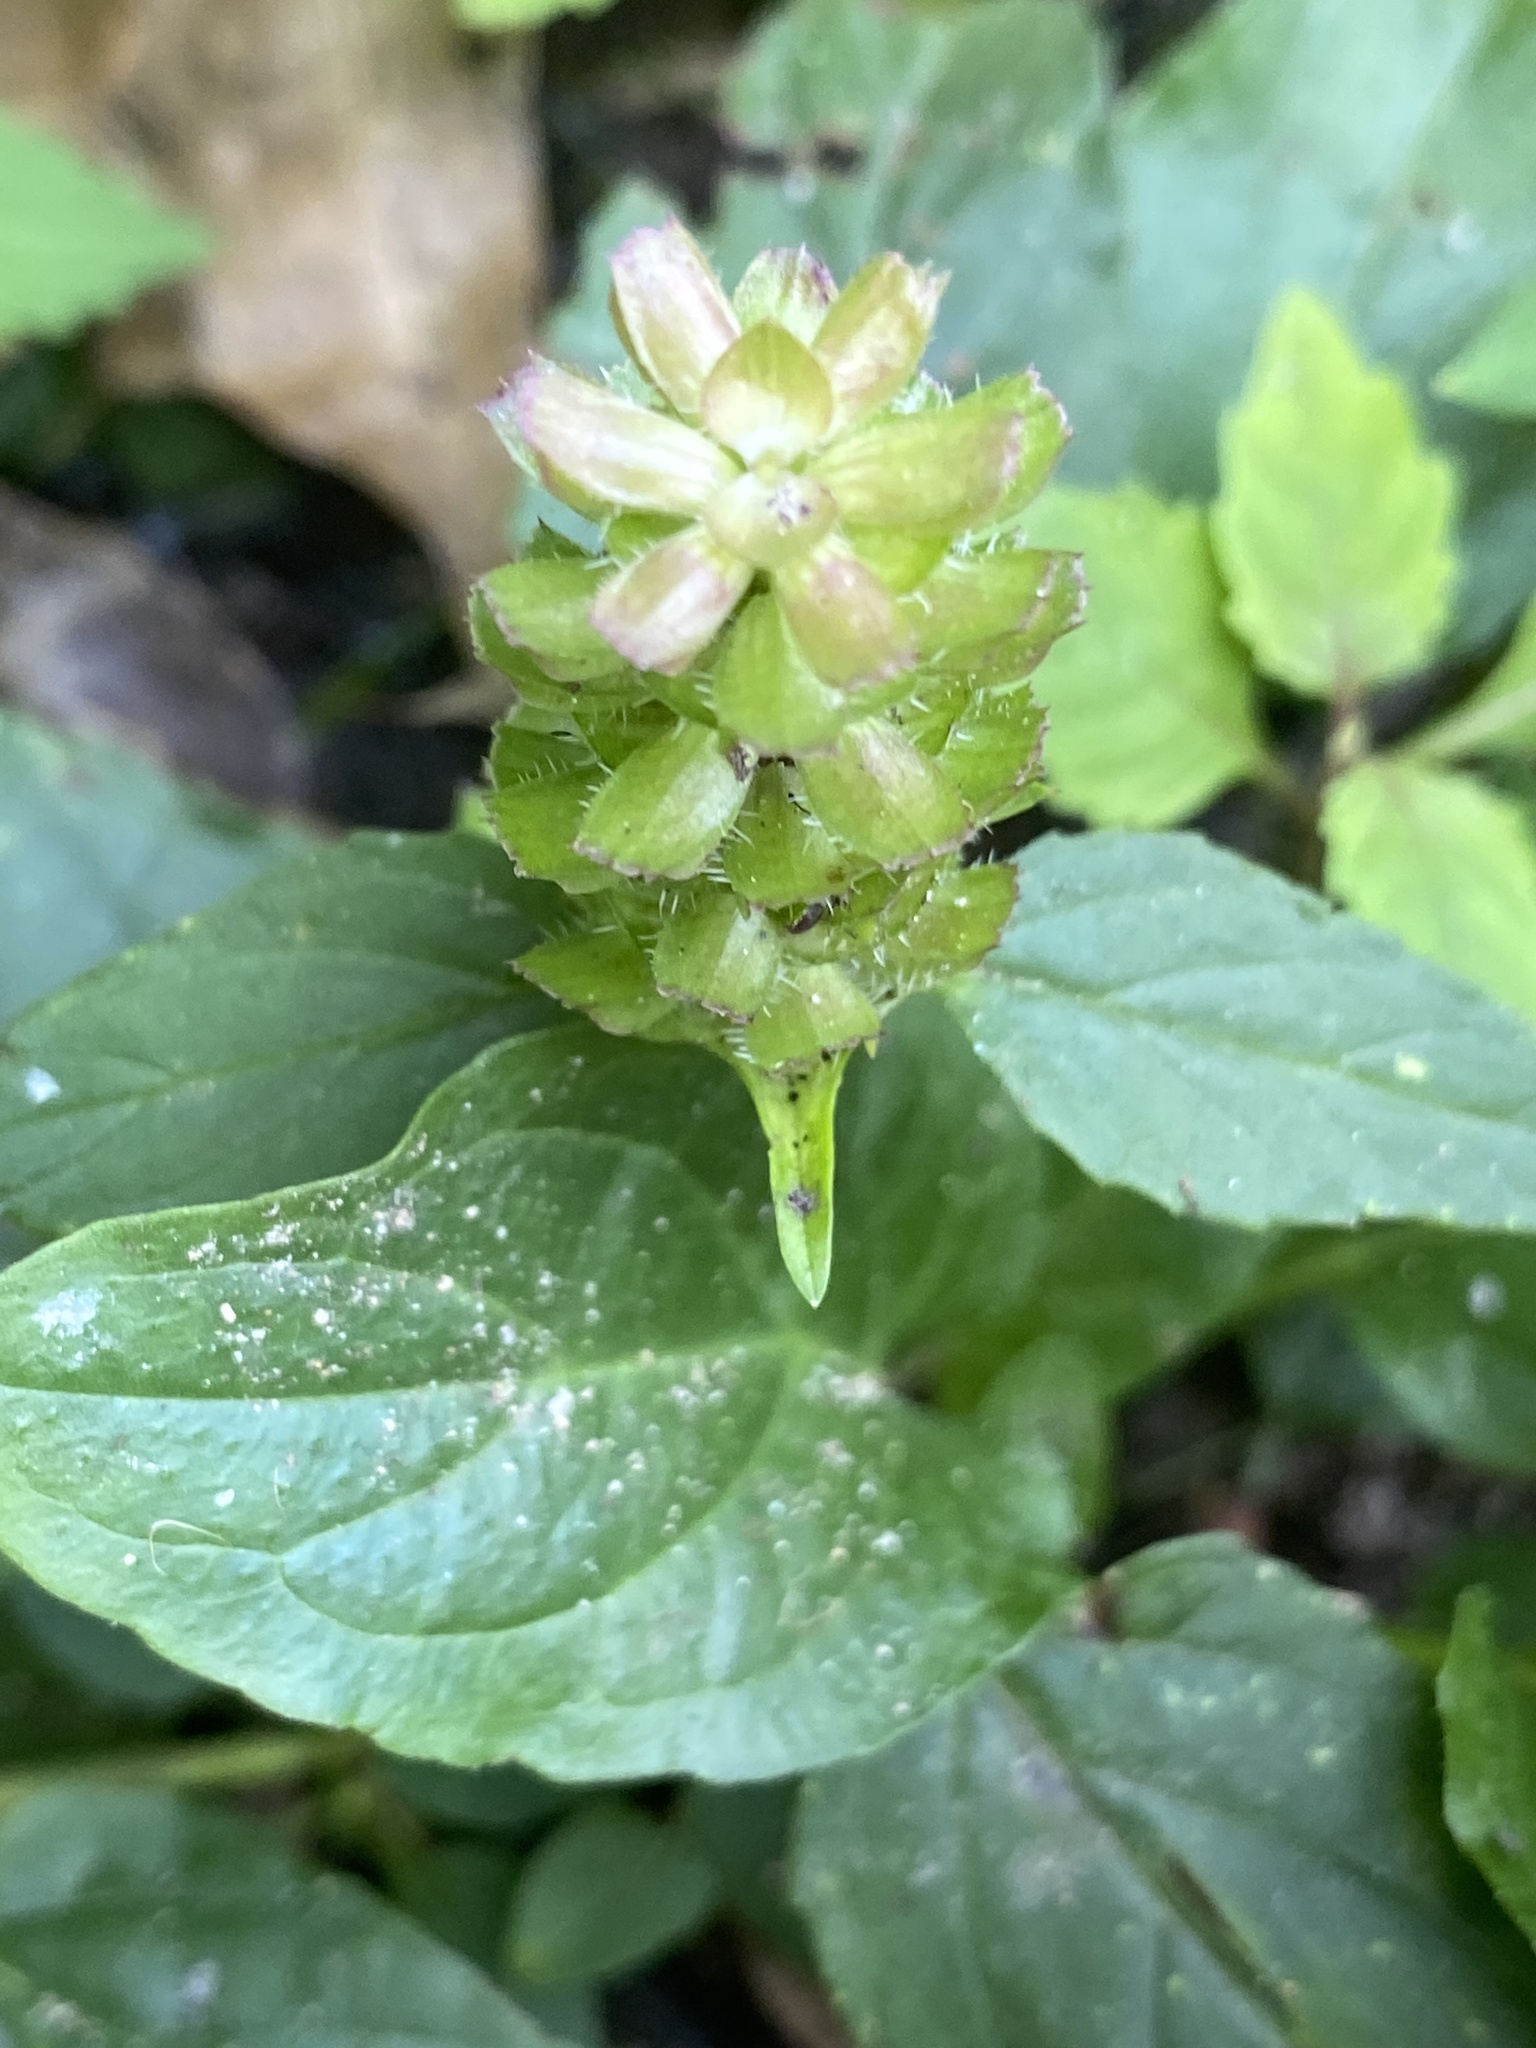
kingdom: Plantae
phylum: Tracheophyta
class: Magnoliopsida
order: Lamiales
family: Lamiaceae
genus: Prunella
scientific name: Prunella vulgaris
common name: Heal-all
